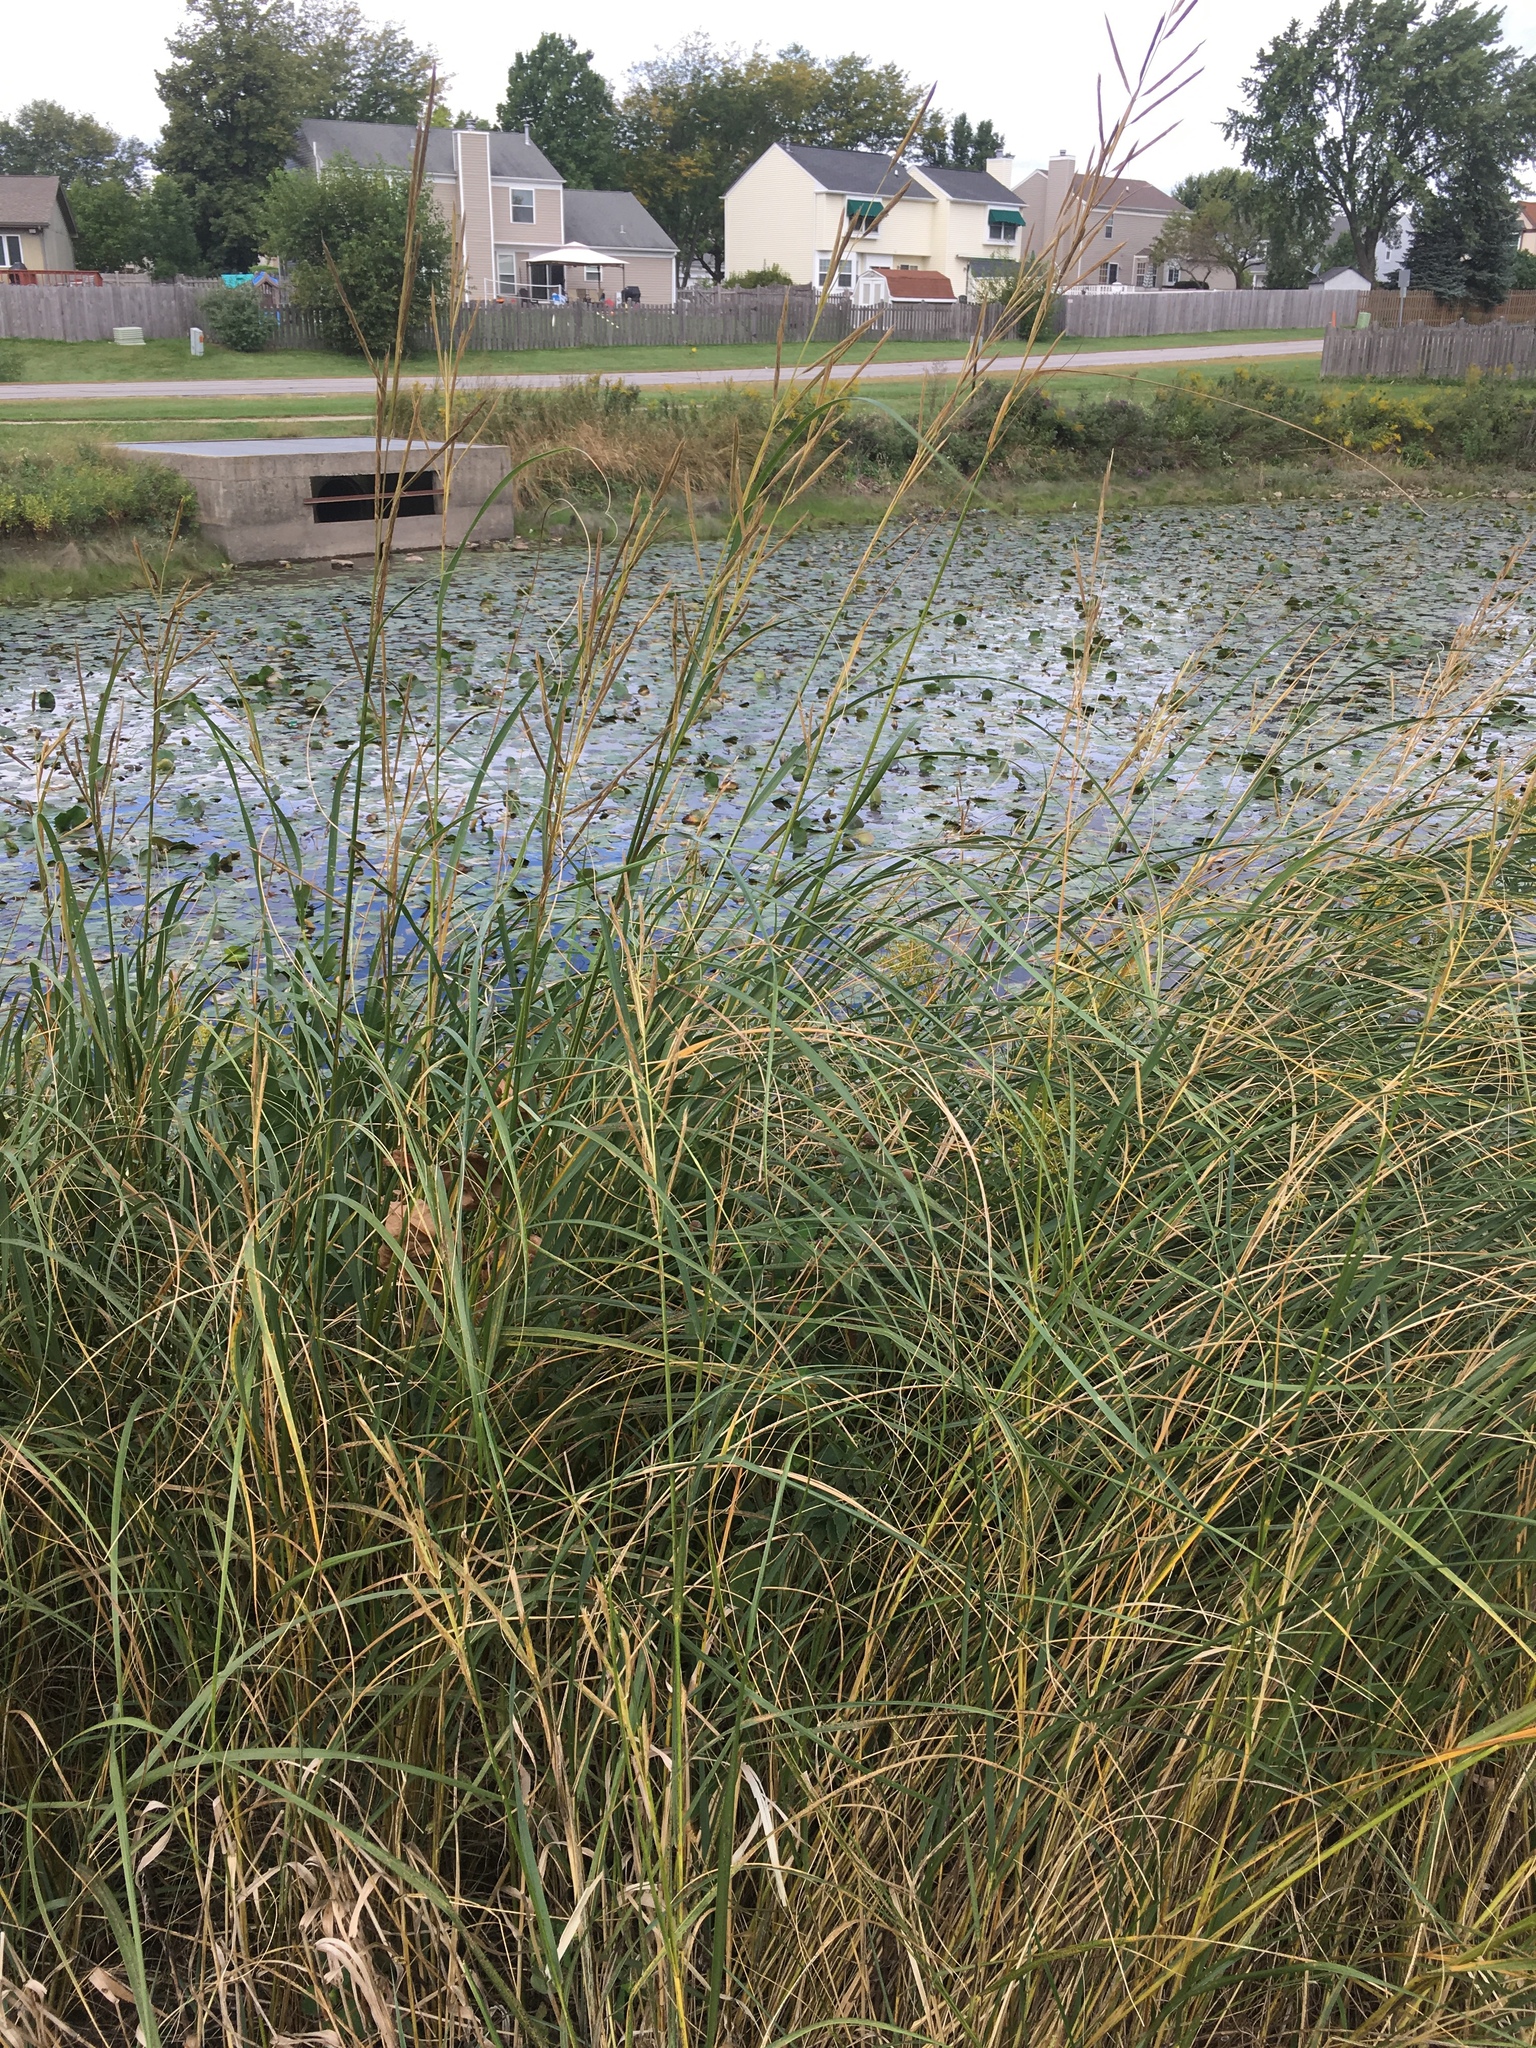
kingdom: Plantae
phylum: Tracheophyta
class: Liliopsida
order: Poales
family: Poaceae
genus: Sporobolus
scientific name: Sporobolus michauxianus
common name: Freshwater cordgrass
